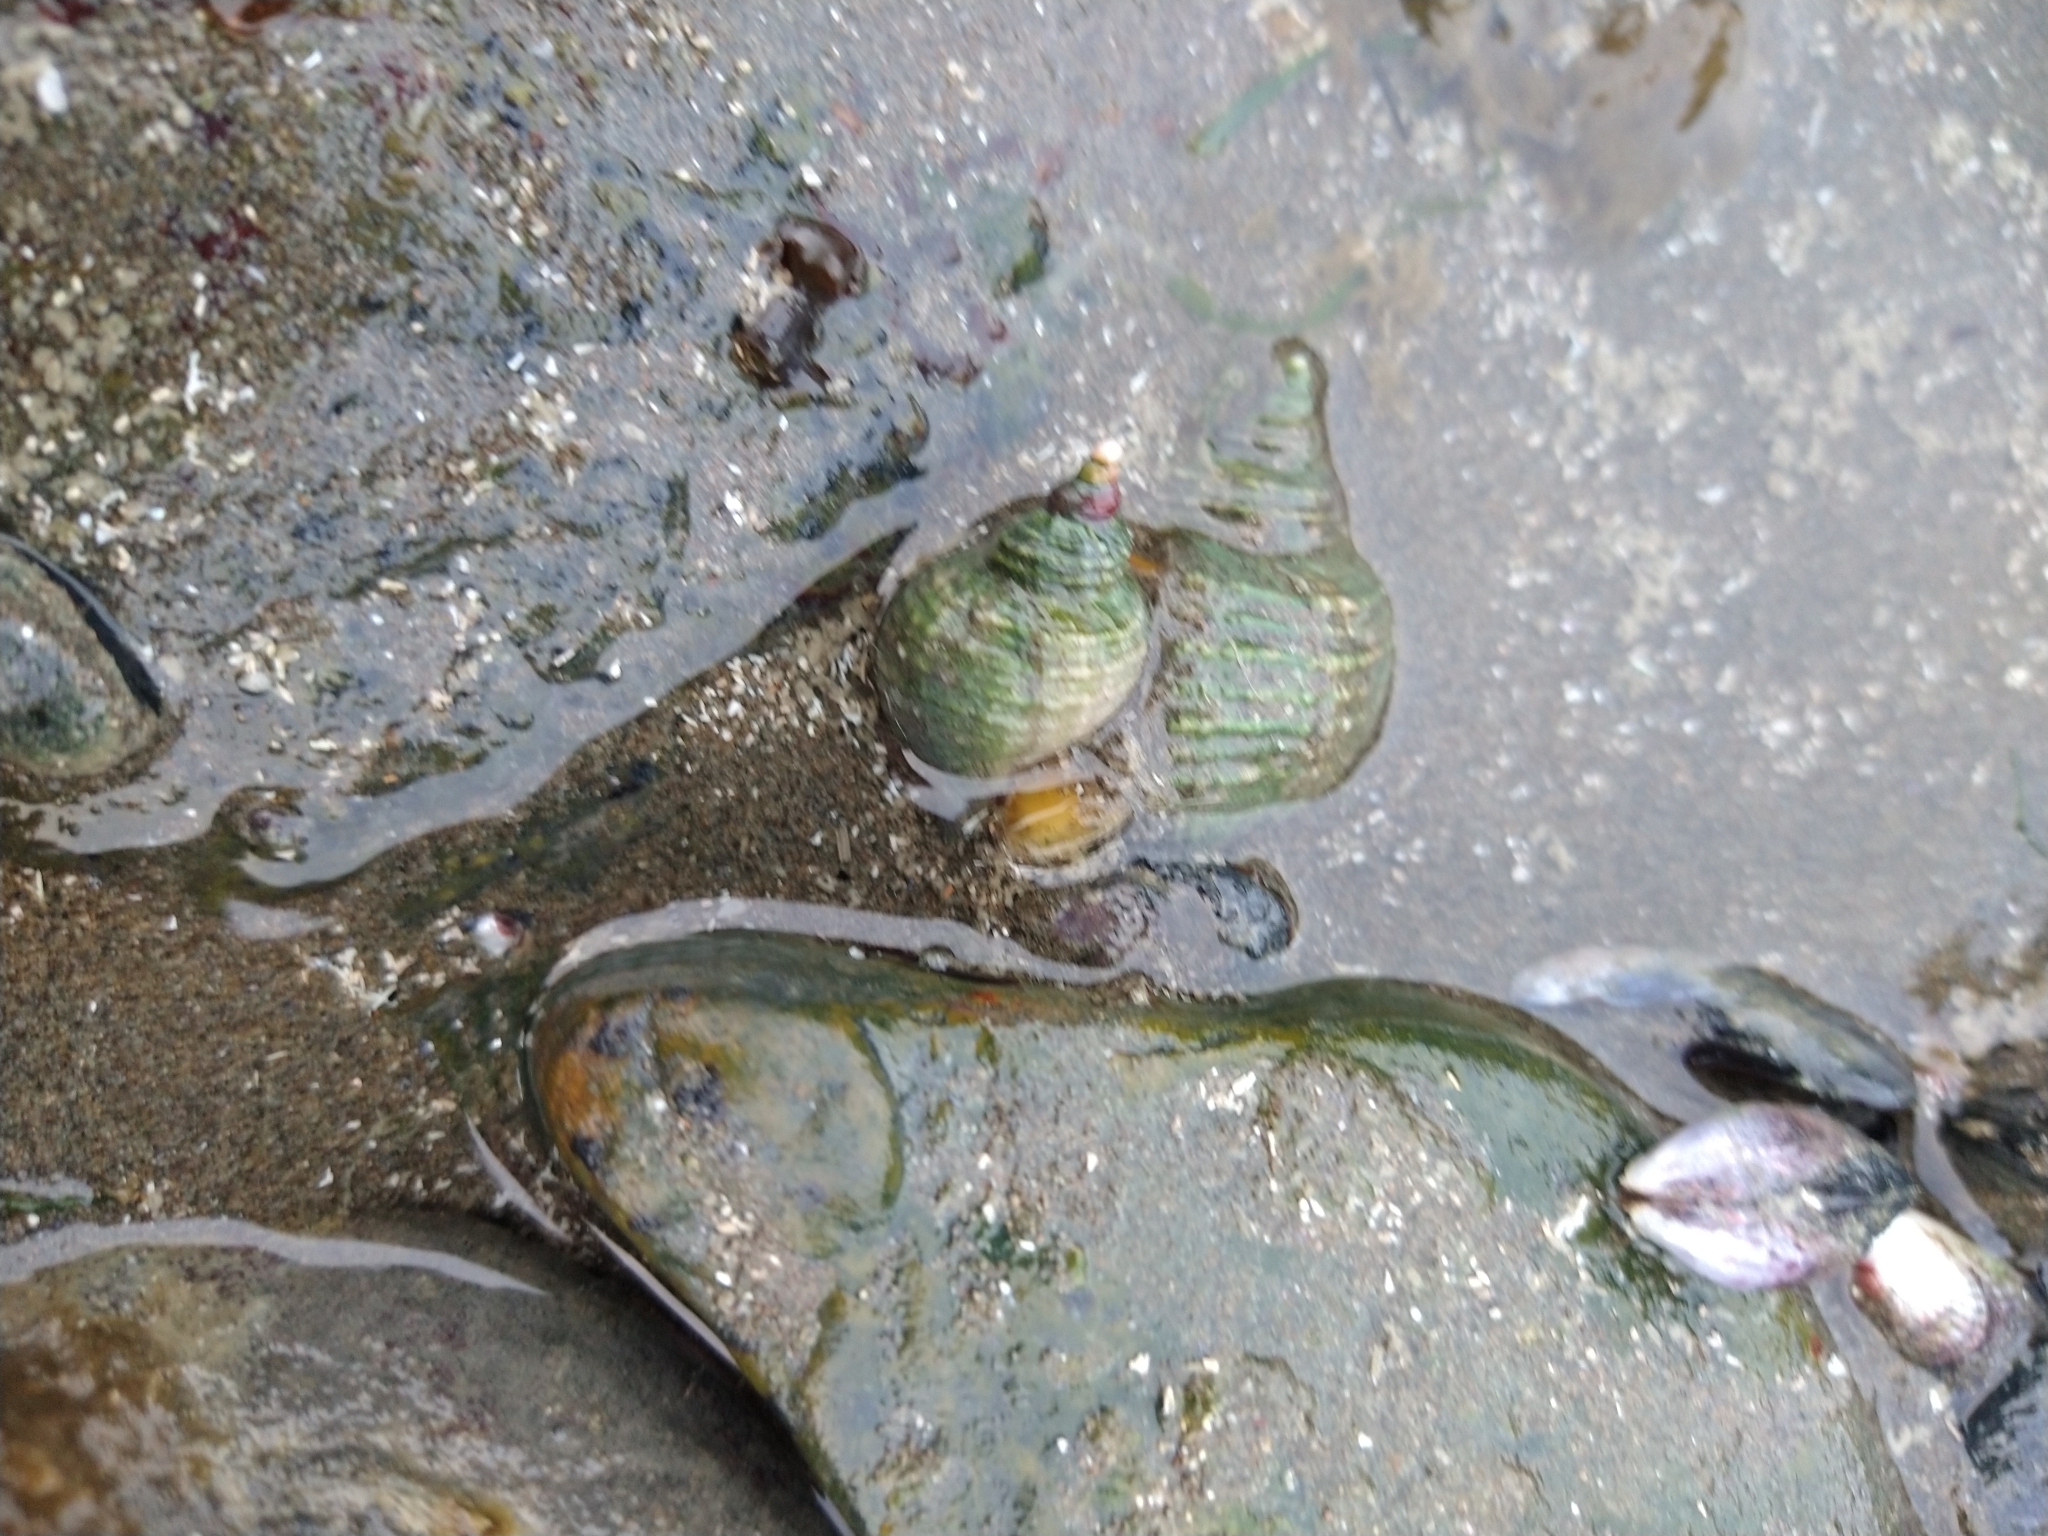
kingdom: Animalia
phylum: Mollusca
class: Gastropoda
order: Neogastropoda
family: Muricidae
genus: Trophon
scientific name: Trophon geversianus
